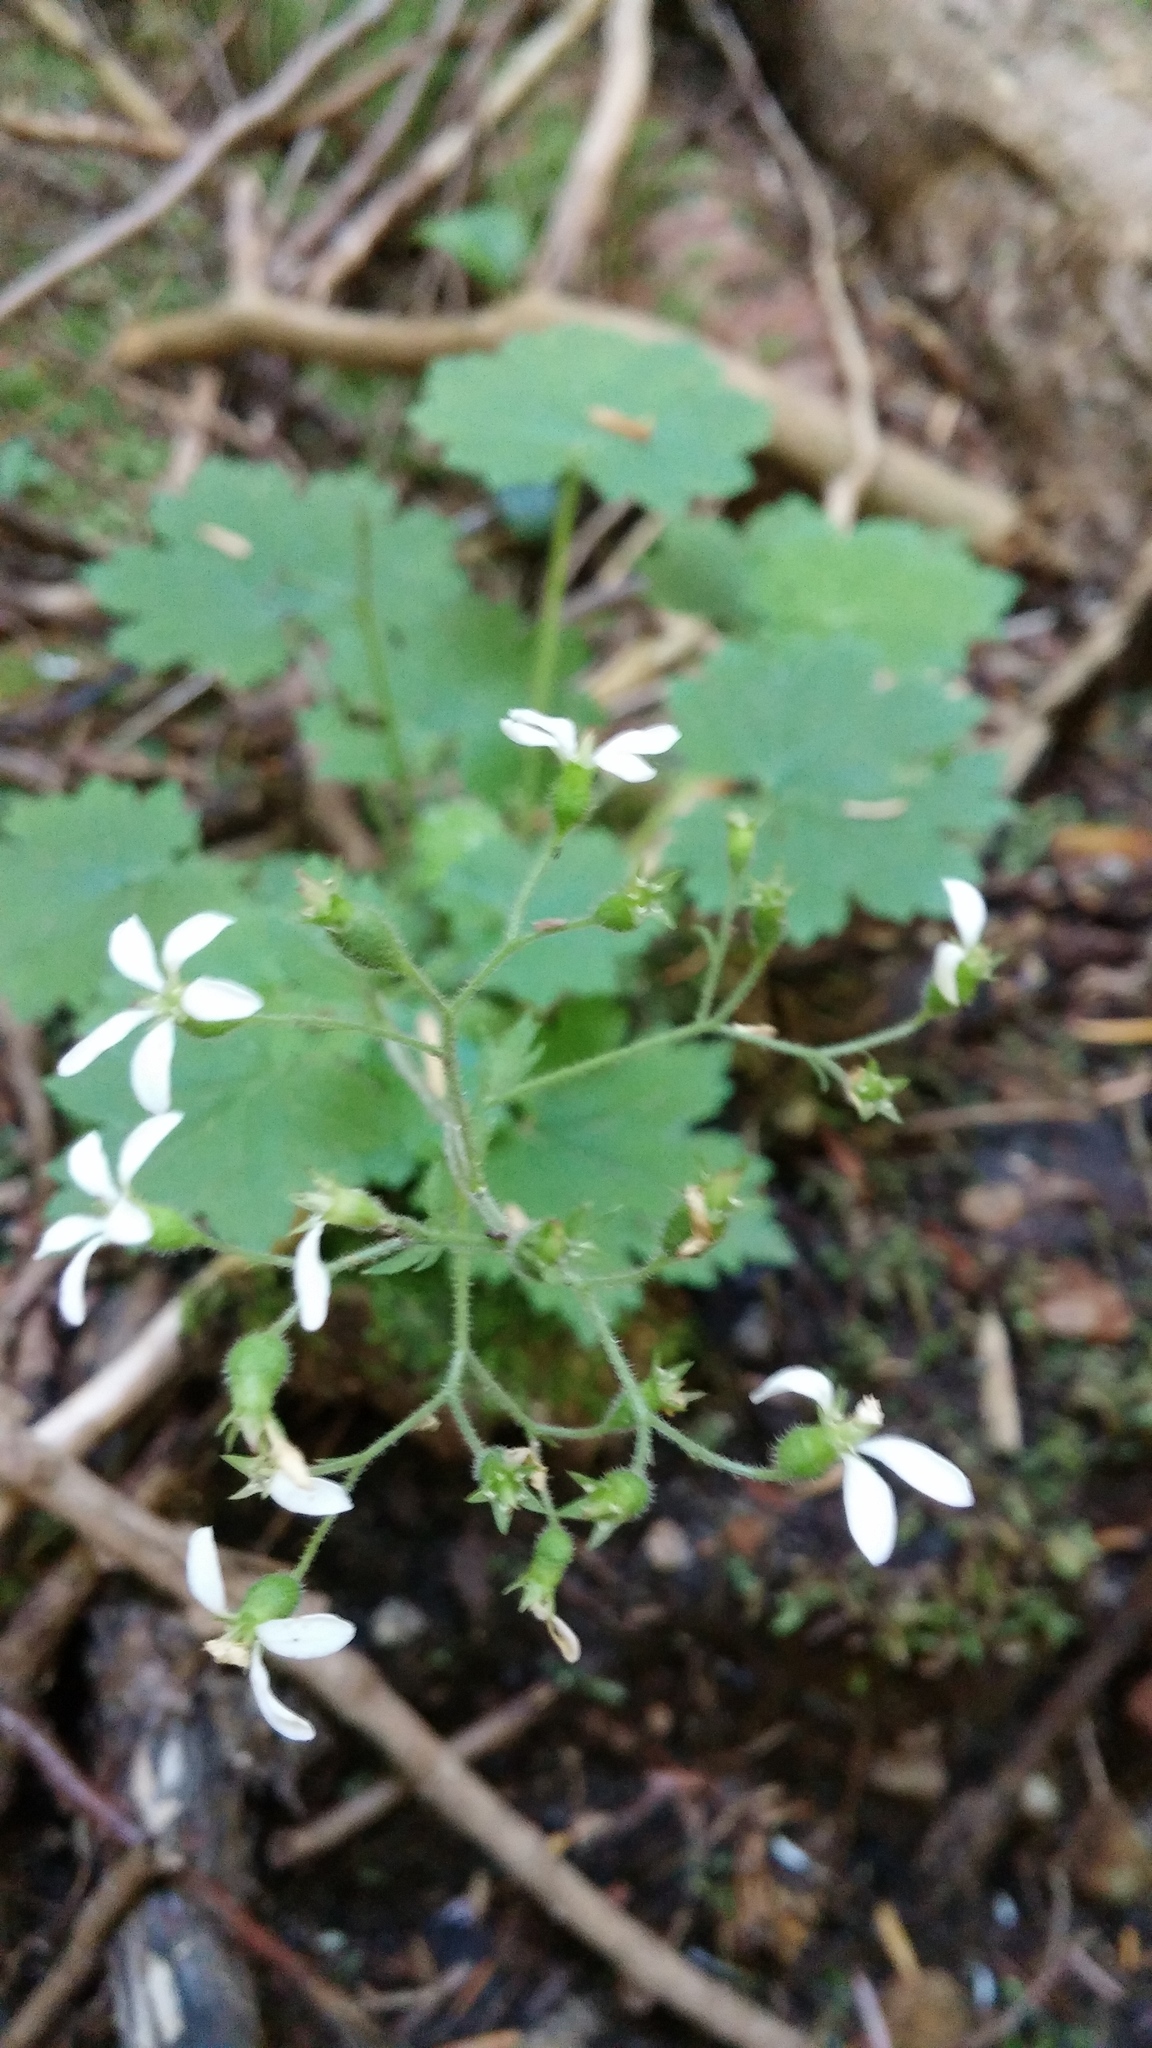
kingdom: Plantae
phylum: Tracheophyta
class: Magnoliopsida
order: Saxifragales
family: Saxifragaceae
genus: Boykinia
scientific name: Boykinia occidentalis
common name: Coast boykinia
